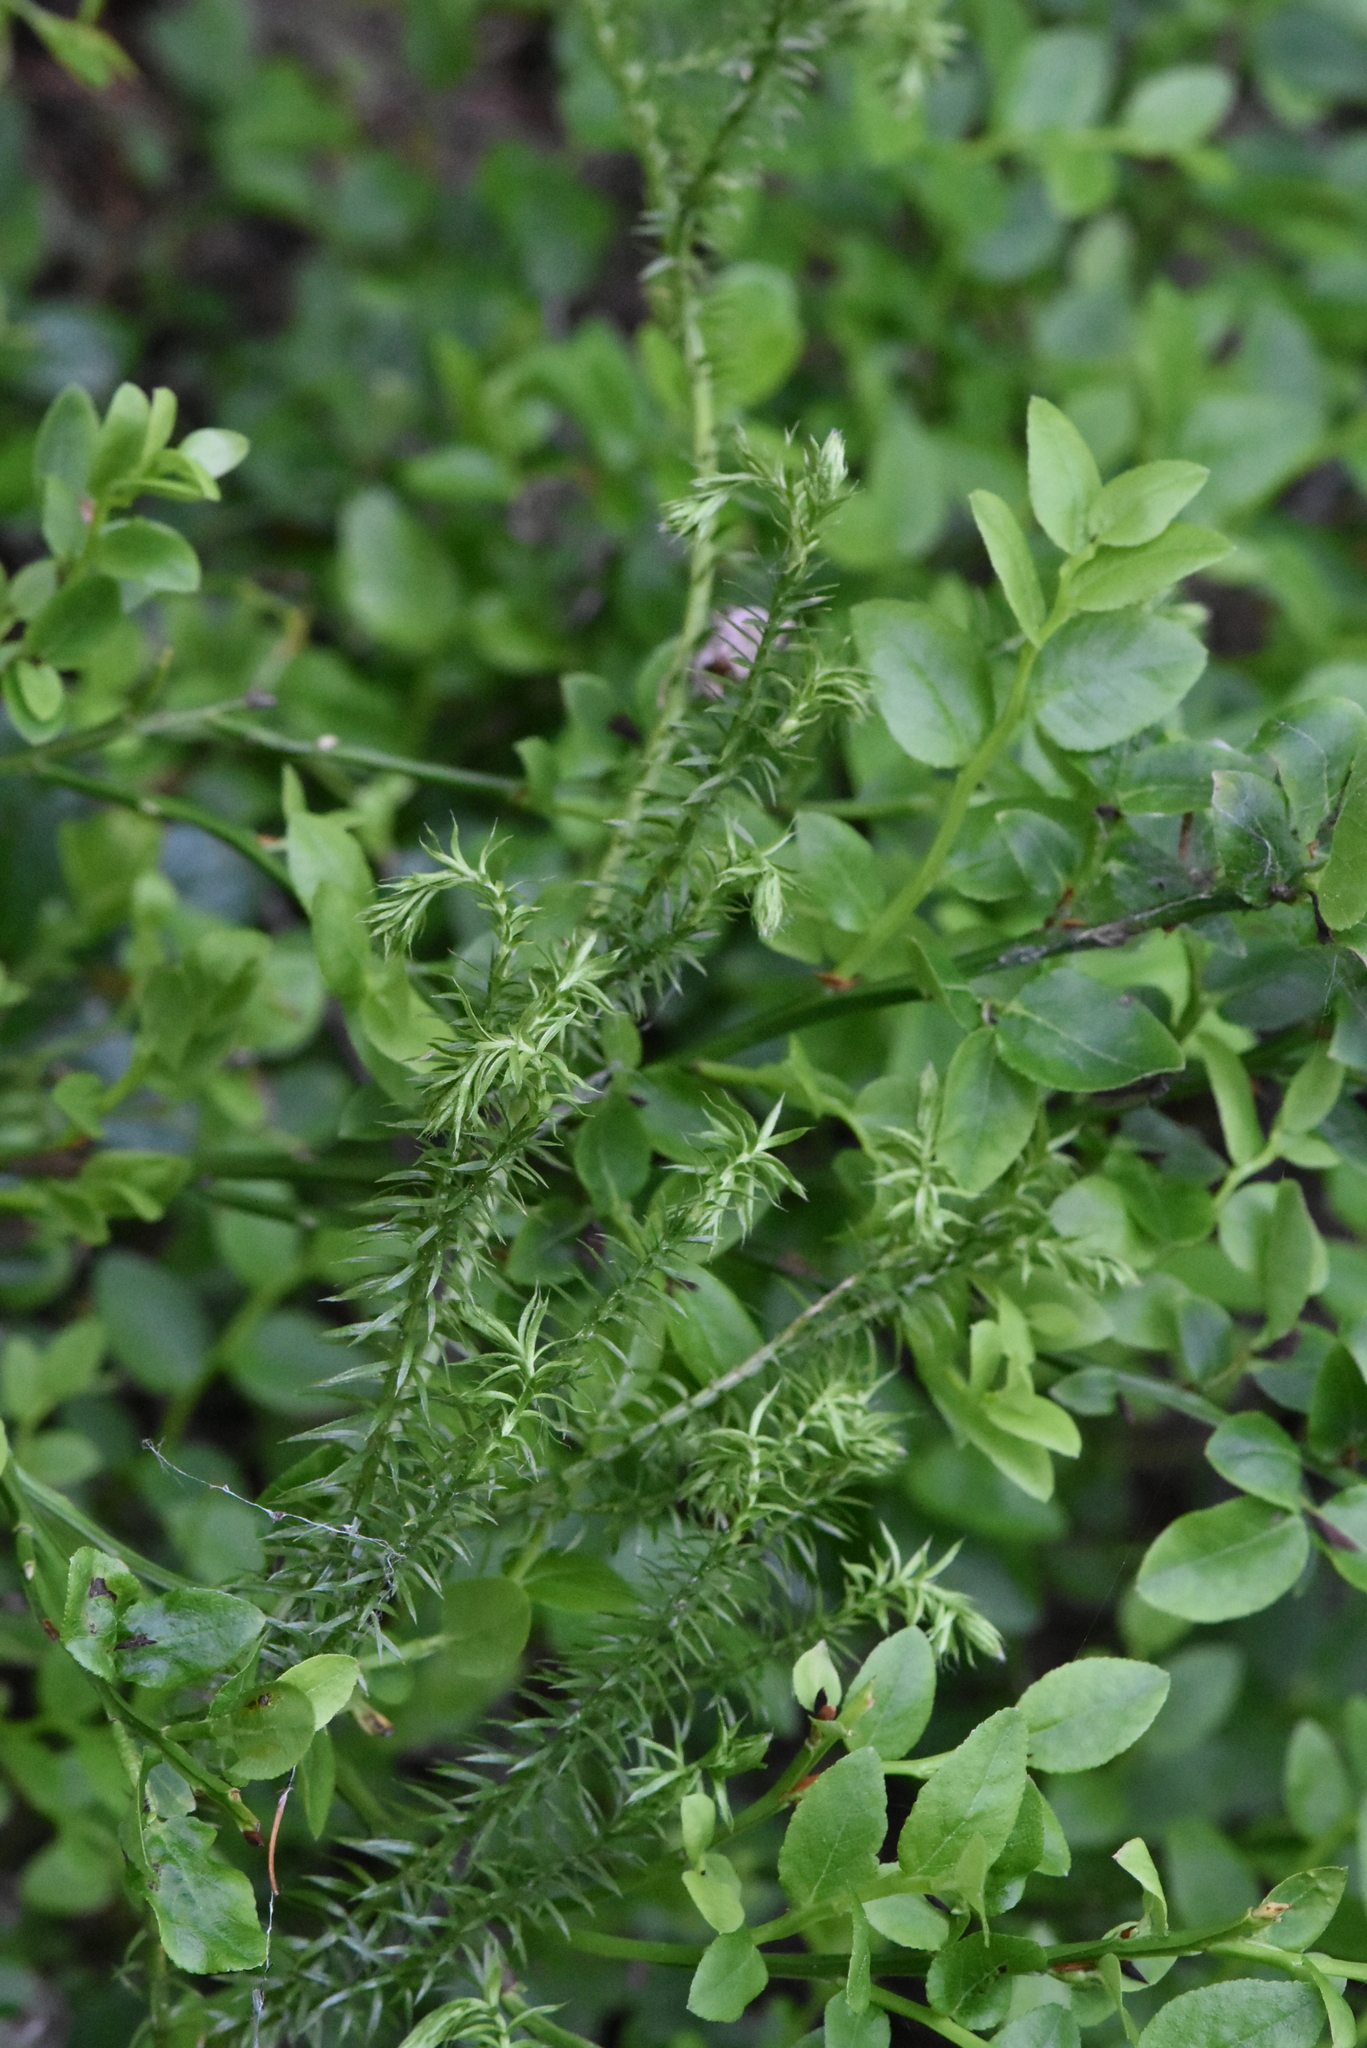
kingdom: Plantae
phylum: Tracheophyta
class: Lycopodiopsida
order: Lycopodiales
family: Lycopodiaceae
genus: Spinulum
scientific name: Spinulum annotinum
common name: Interrupted club-moss
